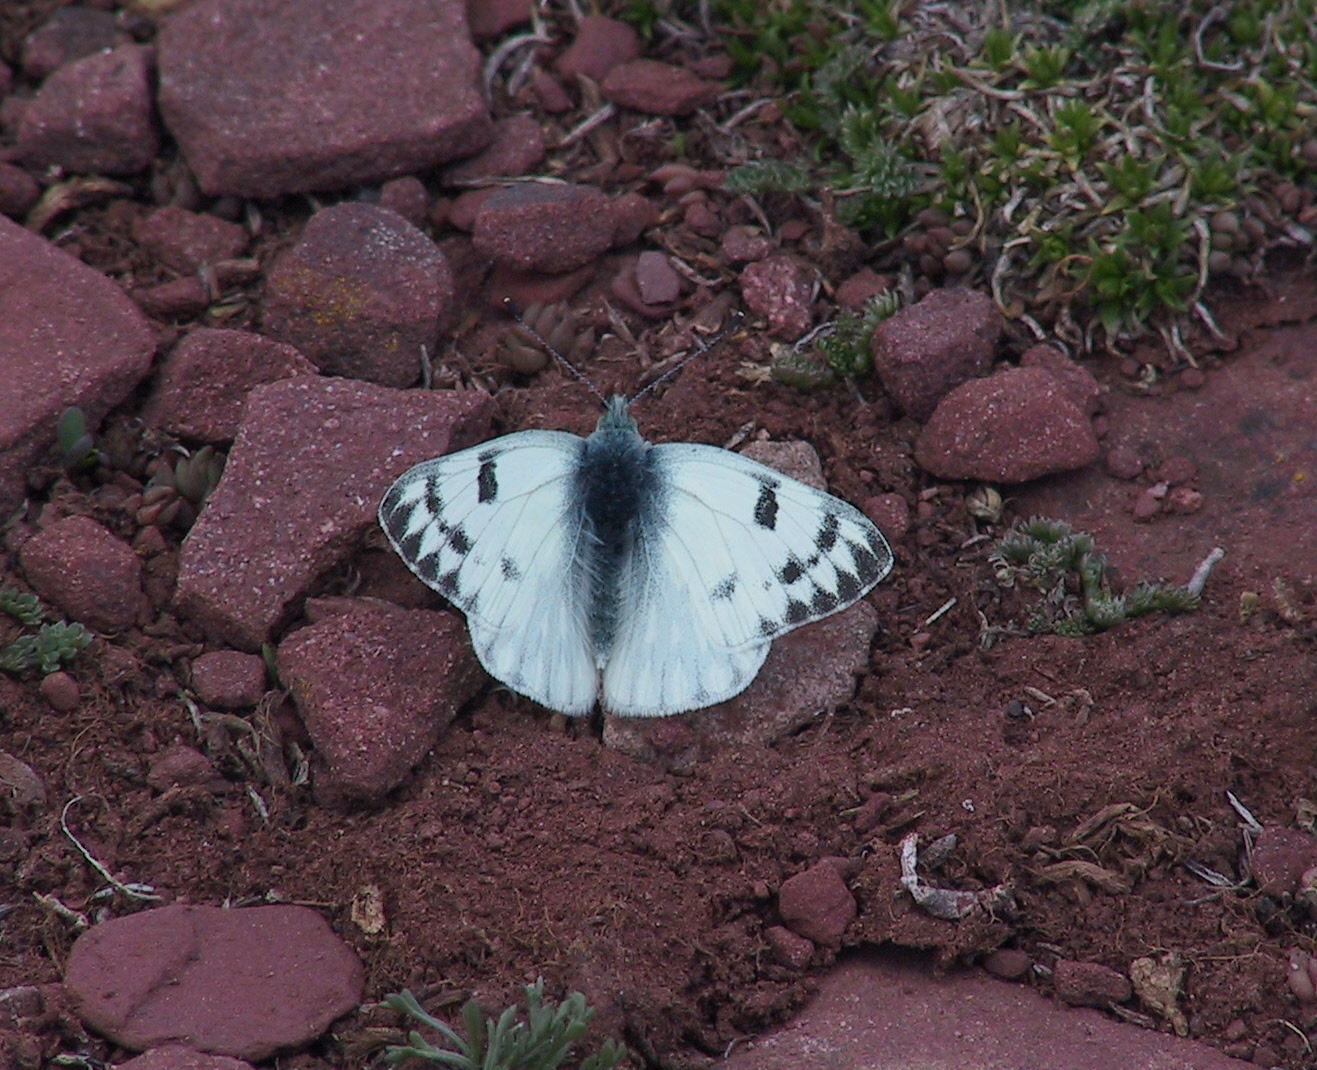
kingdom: Animalia
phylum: Arthropoda
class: Insecta
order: Lepidoptera
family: Pieridae
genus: Pontia
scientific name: Pontia occidentalis
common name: Western white
